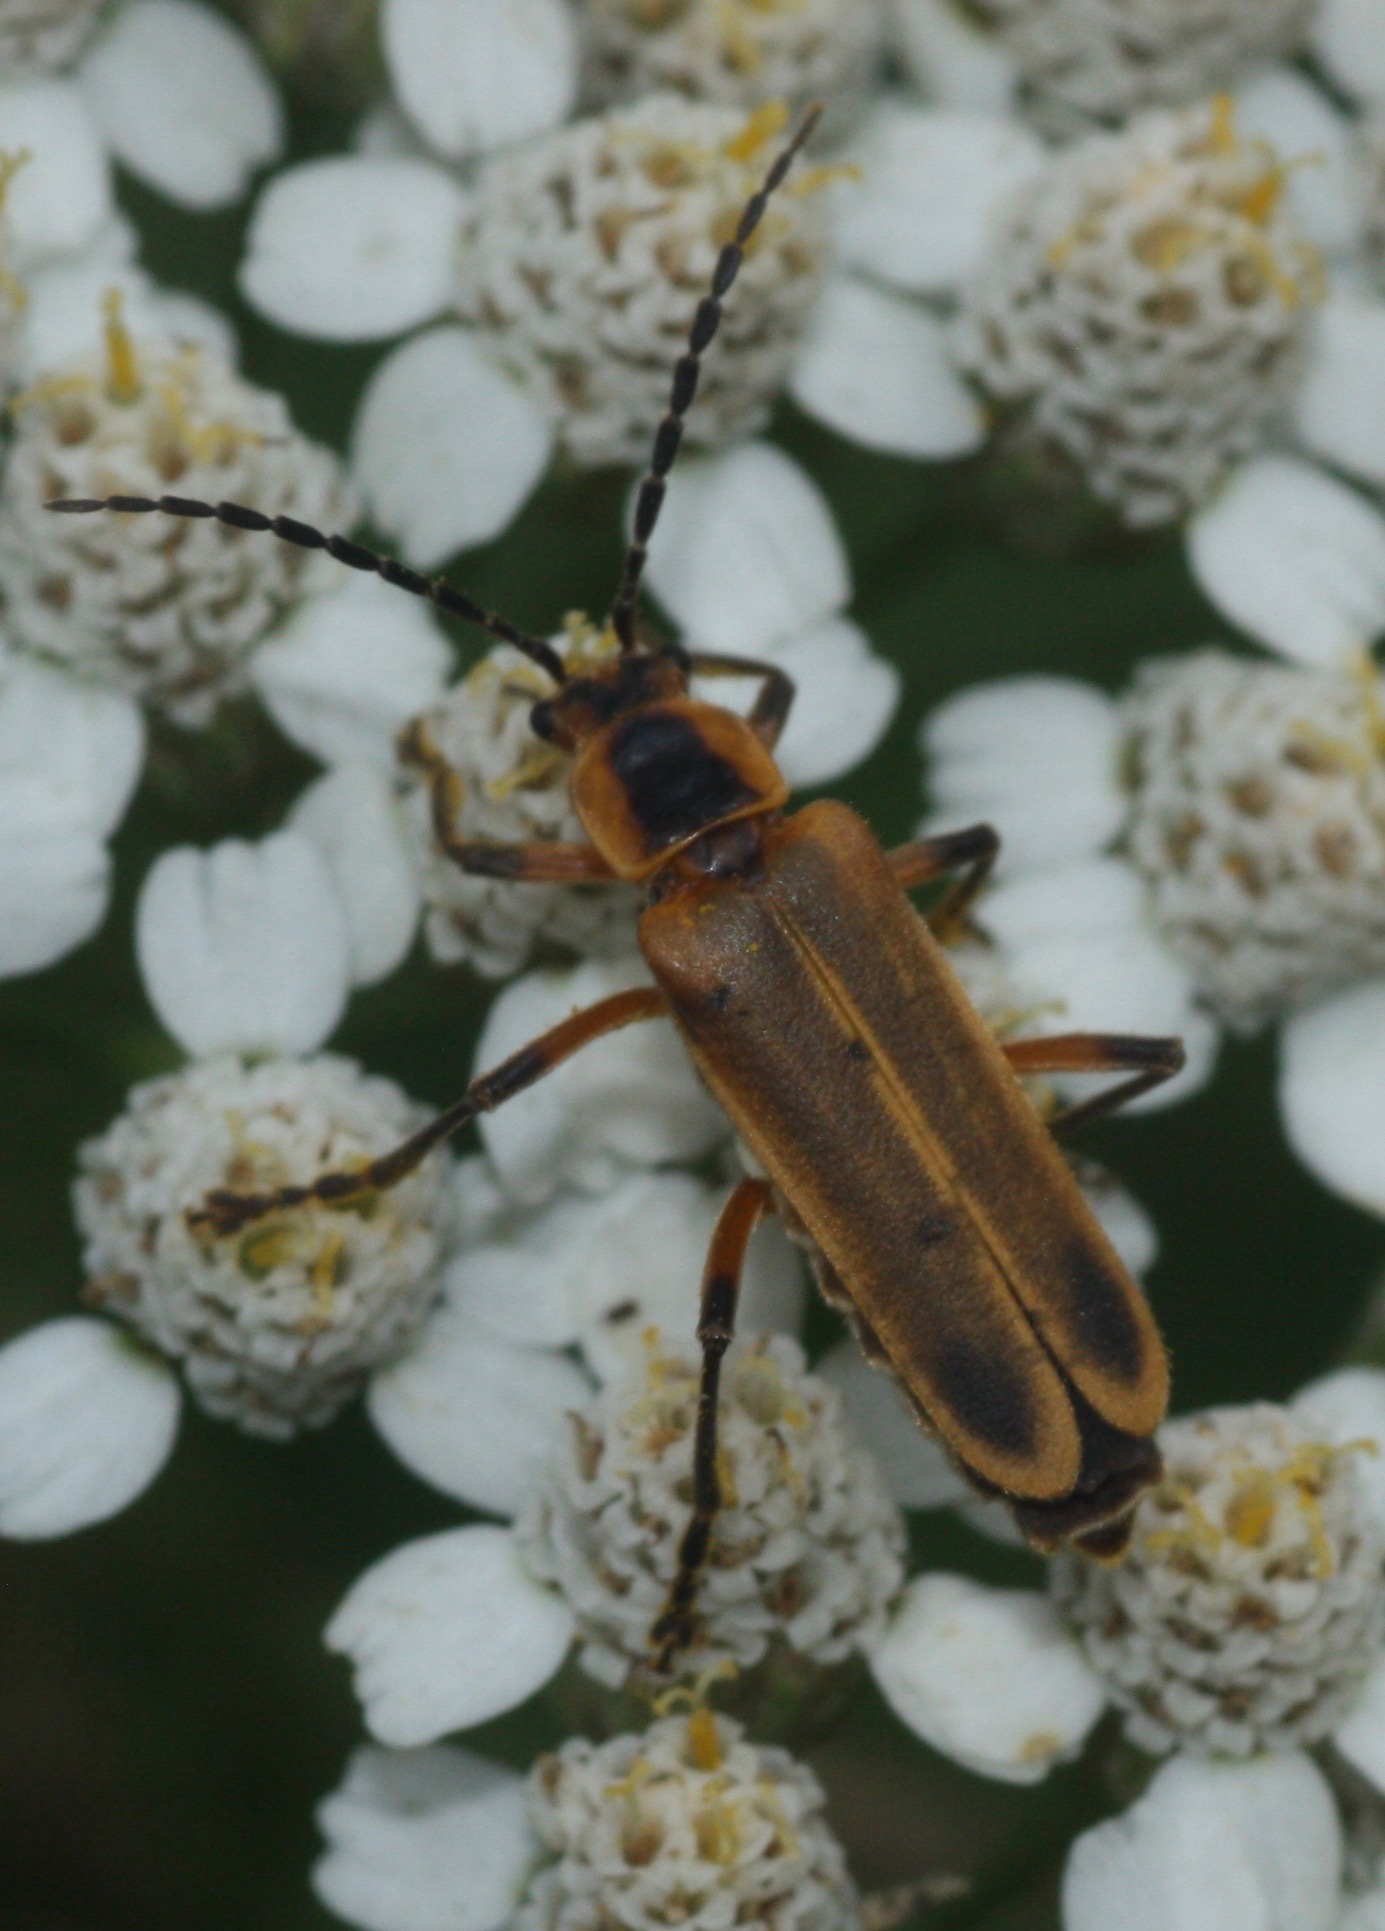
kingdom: Animalia
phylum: Arthropoda
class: Insecta
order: Coleoptera
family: Cantharidae
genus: Chauliognathus
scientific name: Chauliognathus marginatus
